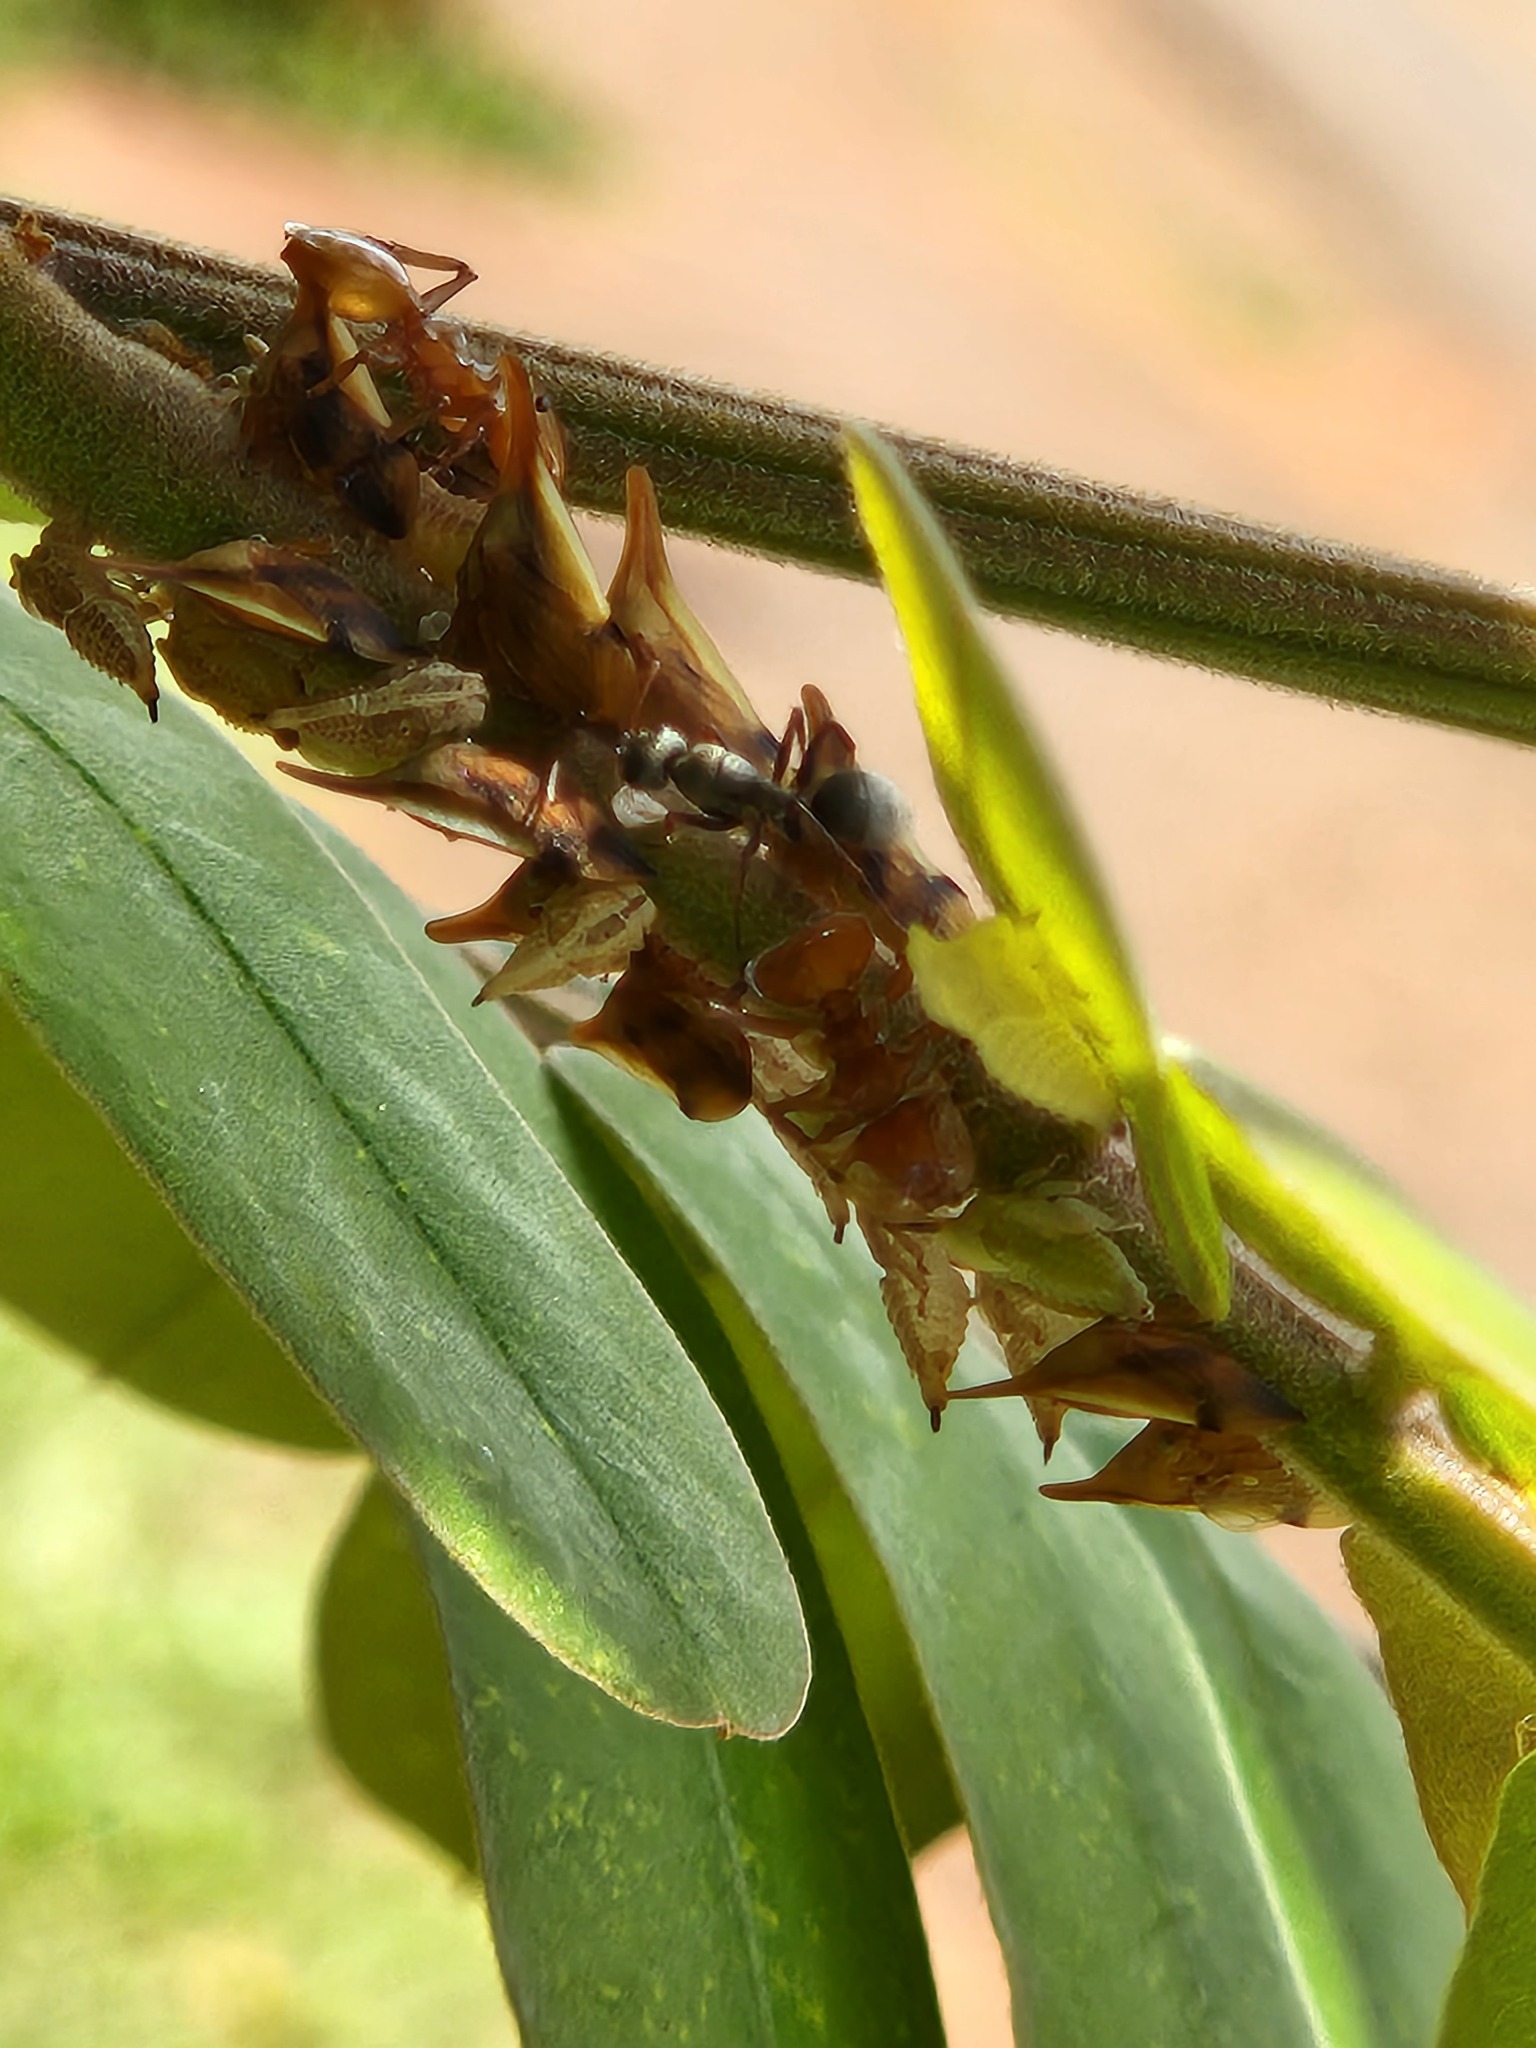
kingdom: Animalia
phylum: Arthropoda
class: Insecta
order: Hemiptera
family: Membracidae
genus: Enchenopa
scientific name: Enchenopa concolor
